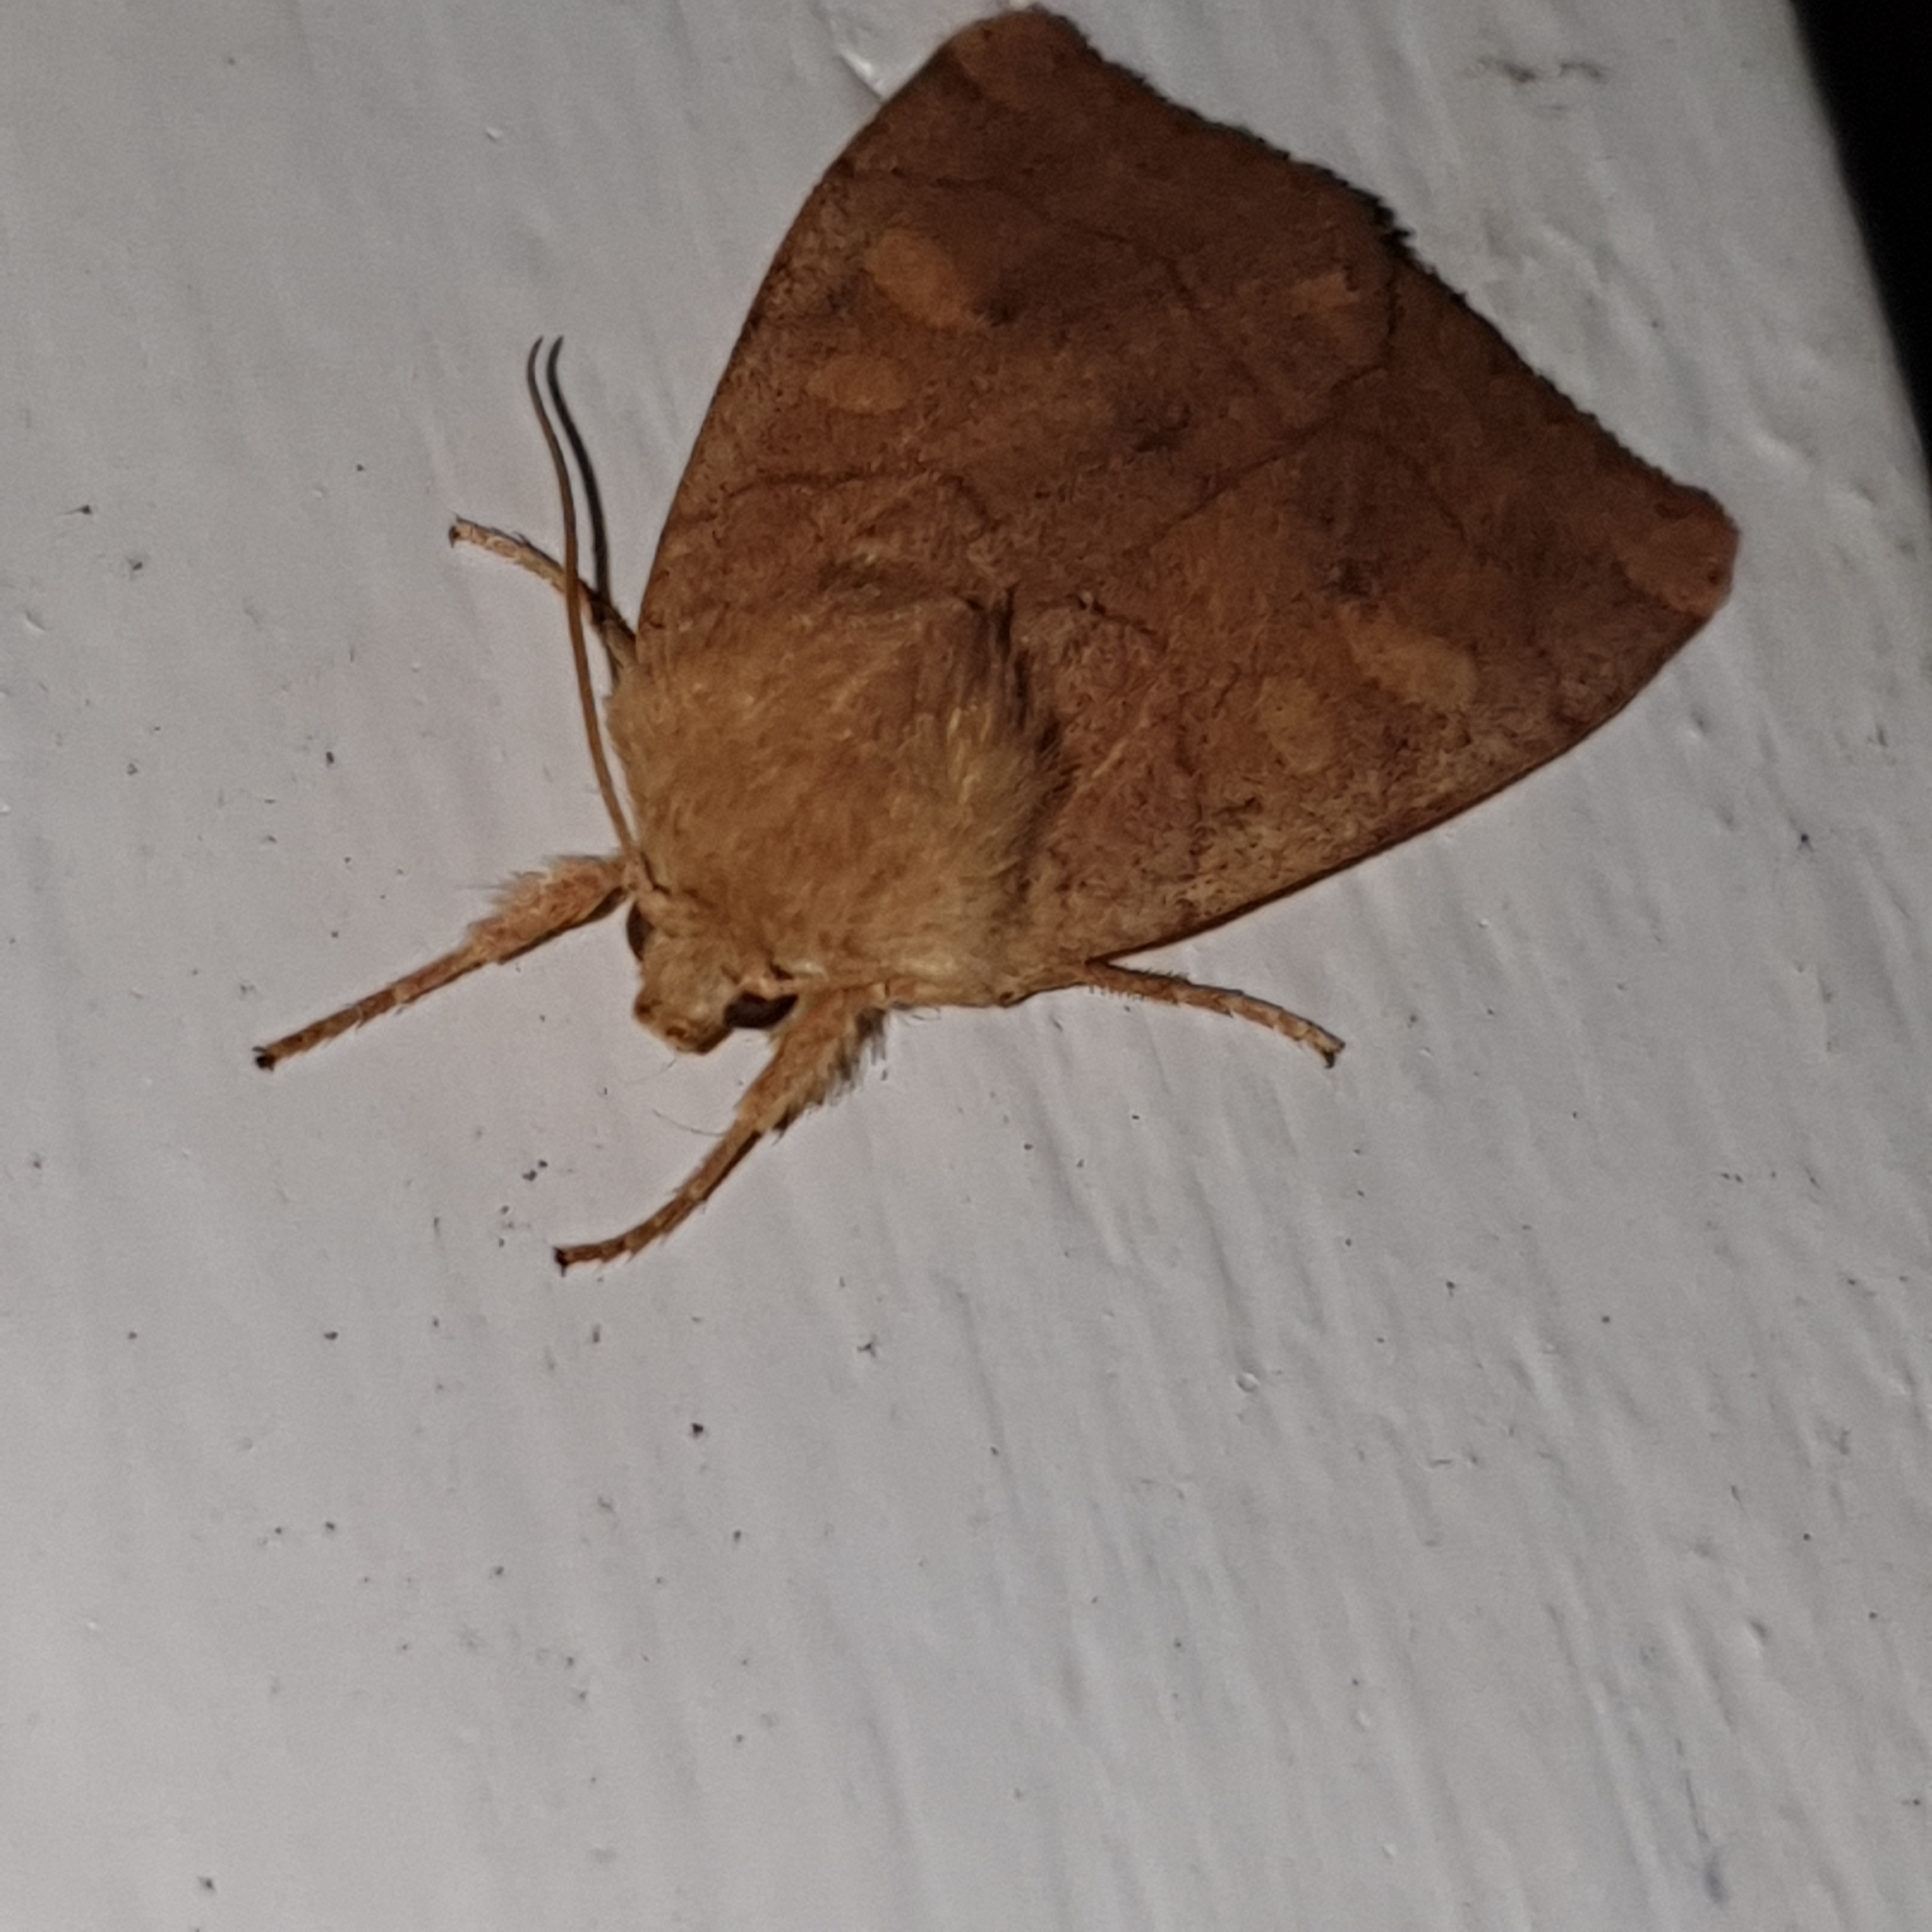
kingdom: Animalia
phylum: Arthropoda
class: Insecta
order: Lepidoptera
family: Noctuidae
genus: Enargia
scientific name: Enargia paleacea
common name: Angle-striped sallow
